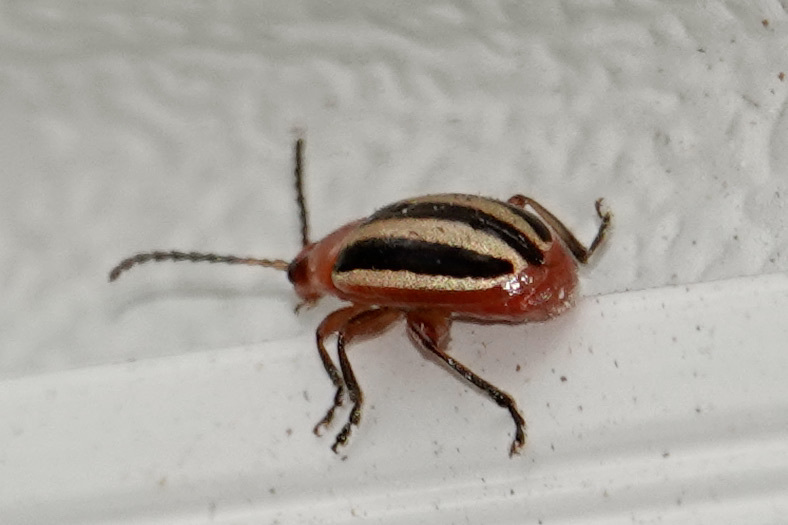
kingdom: Animalia
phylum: Arthropoda
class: Insecta
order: Coleoptera
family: Chrysomelidae
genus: Disonycha
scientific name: Disonycha leptolineata
